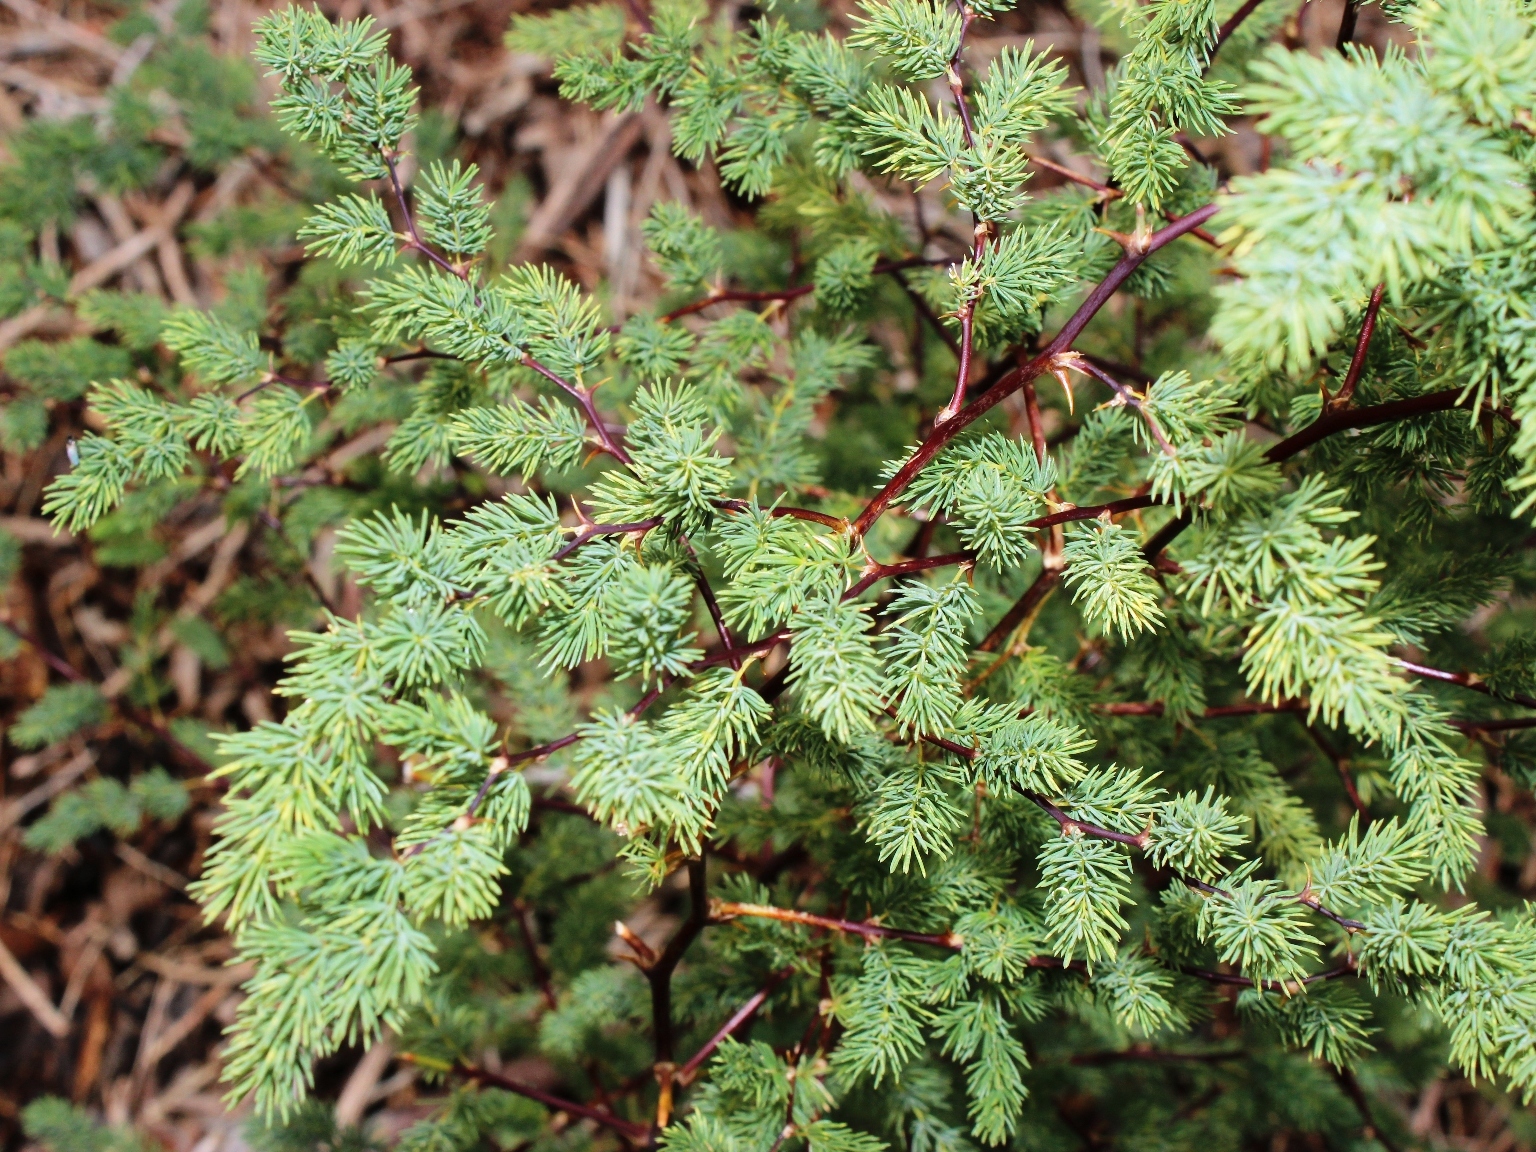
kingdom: Plantae
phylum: Tracheophyta
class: Liliopsida
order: Asparagales
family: Asparagaceae
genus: Asparagus
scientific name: Asparagus rubicundus
